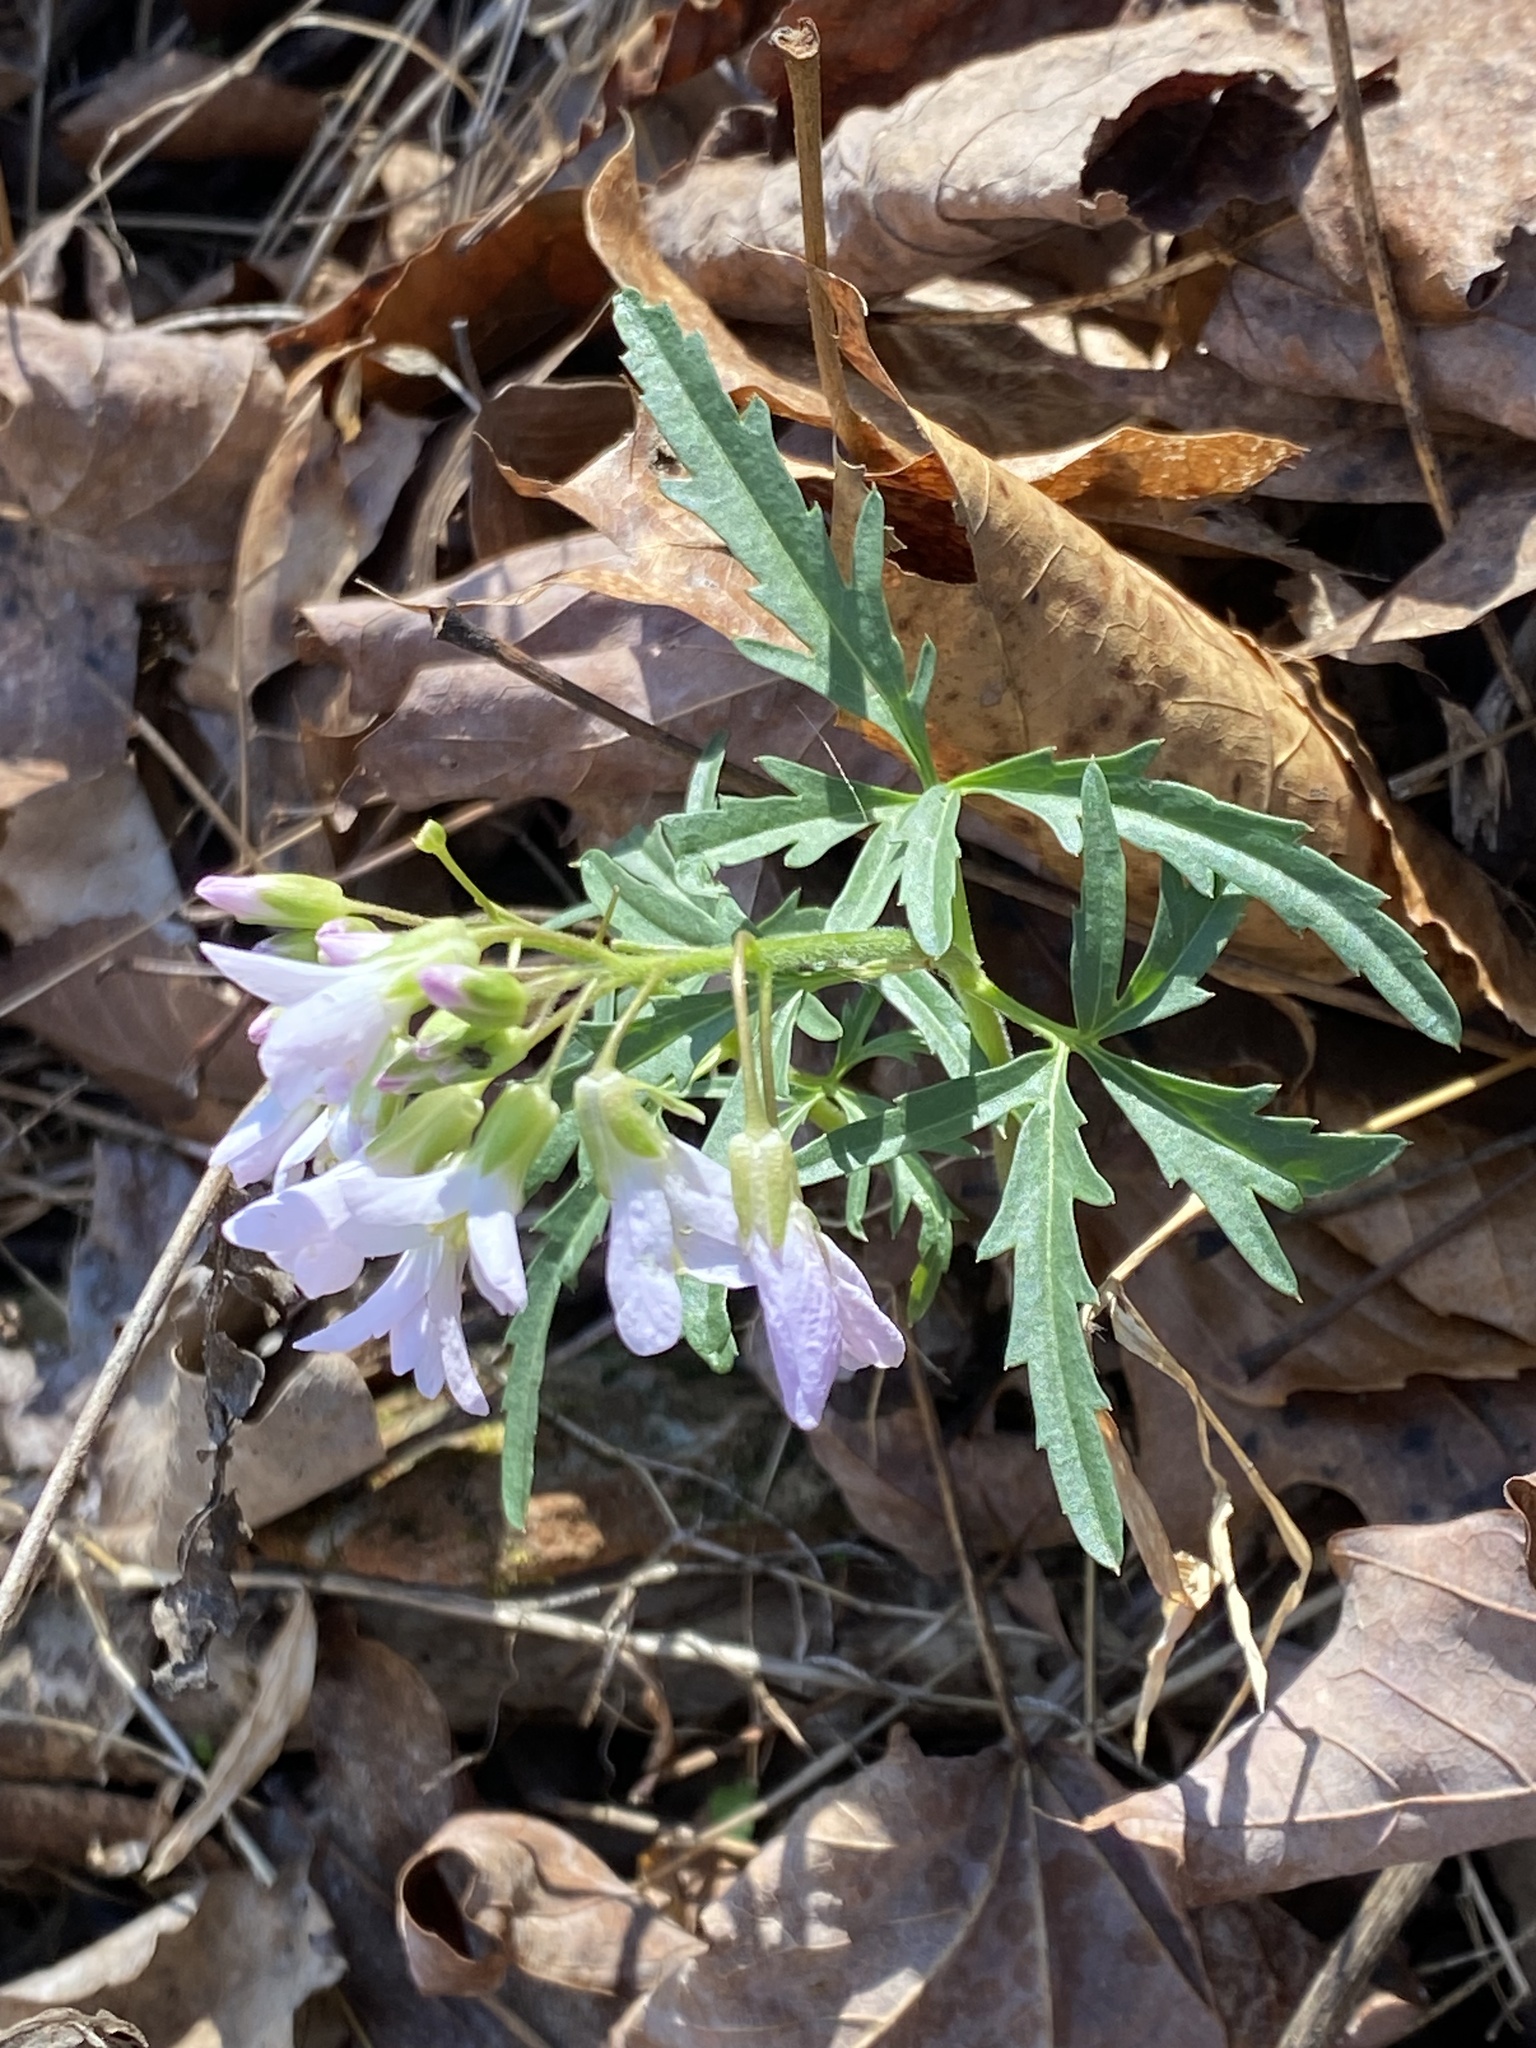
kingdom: Plantae
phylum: Tracheophyta
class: Magnoliopsida
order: Brassicales
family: Brassicaceae
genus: Cardamine
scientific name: Cardamine concatenata
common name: Cut-leaf toothcup
